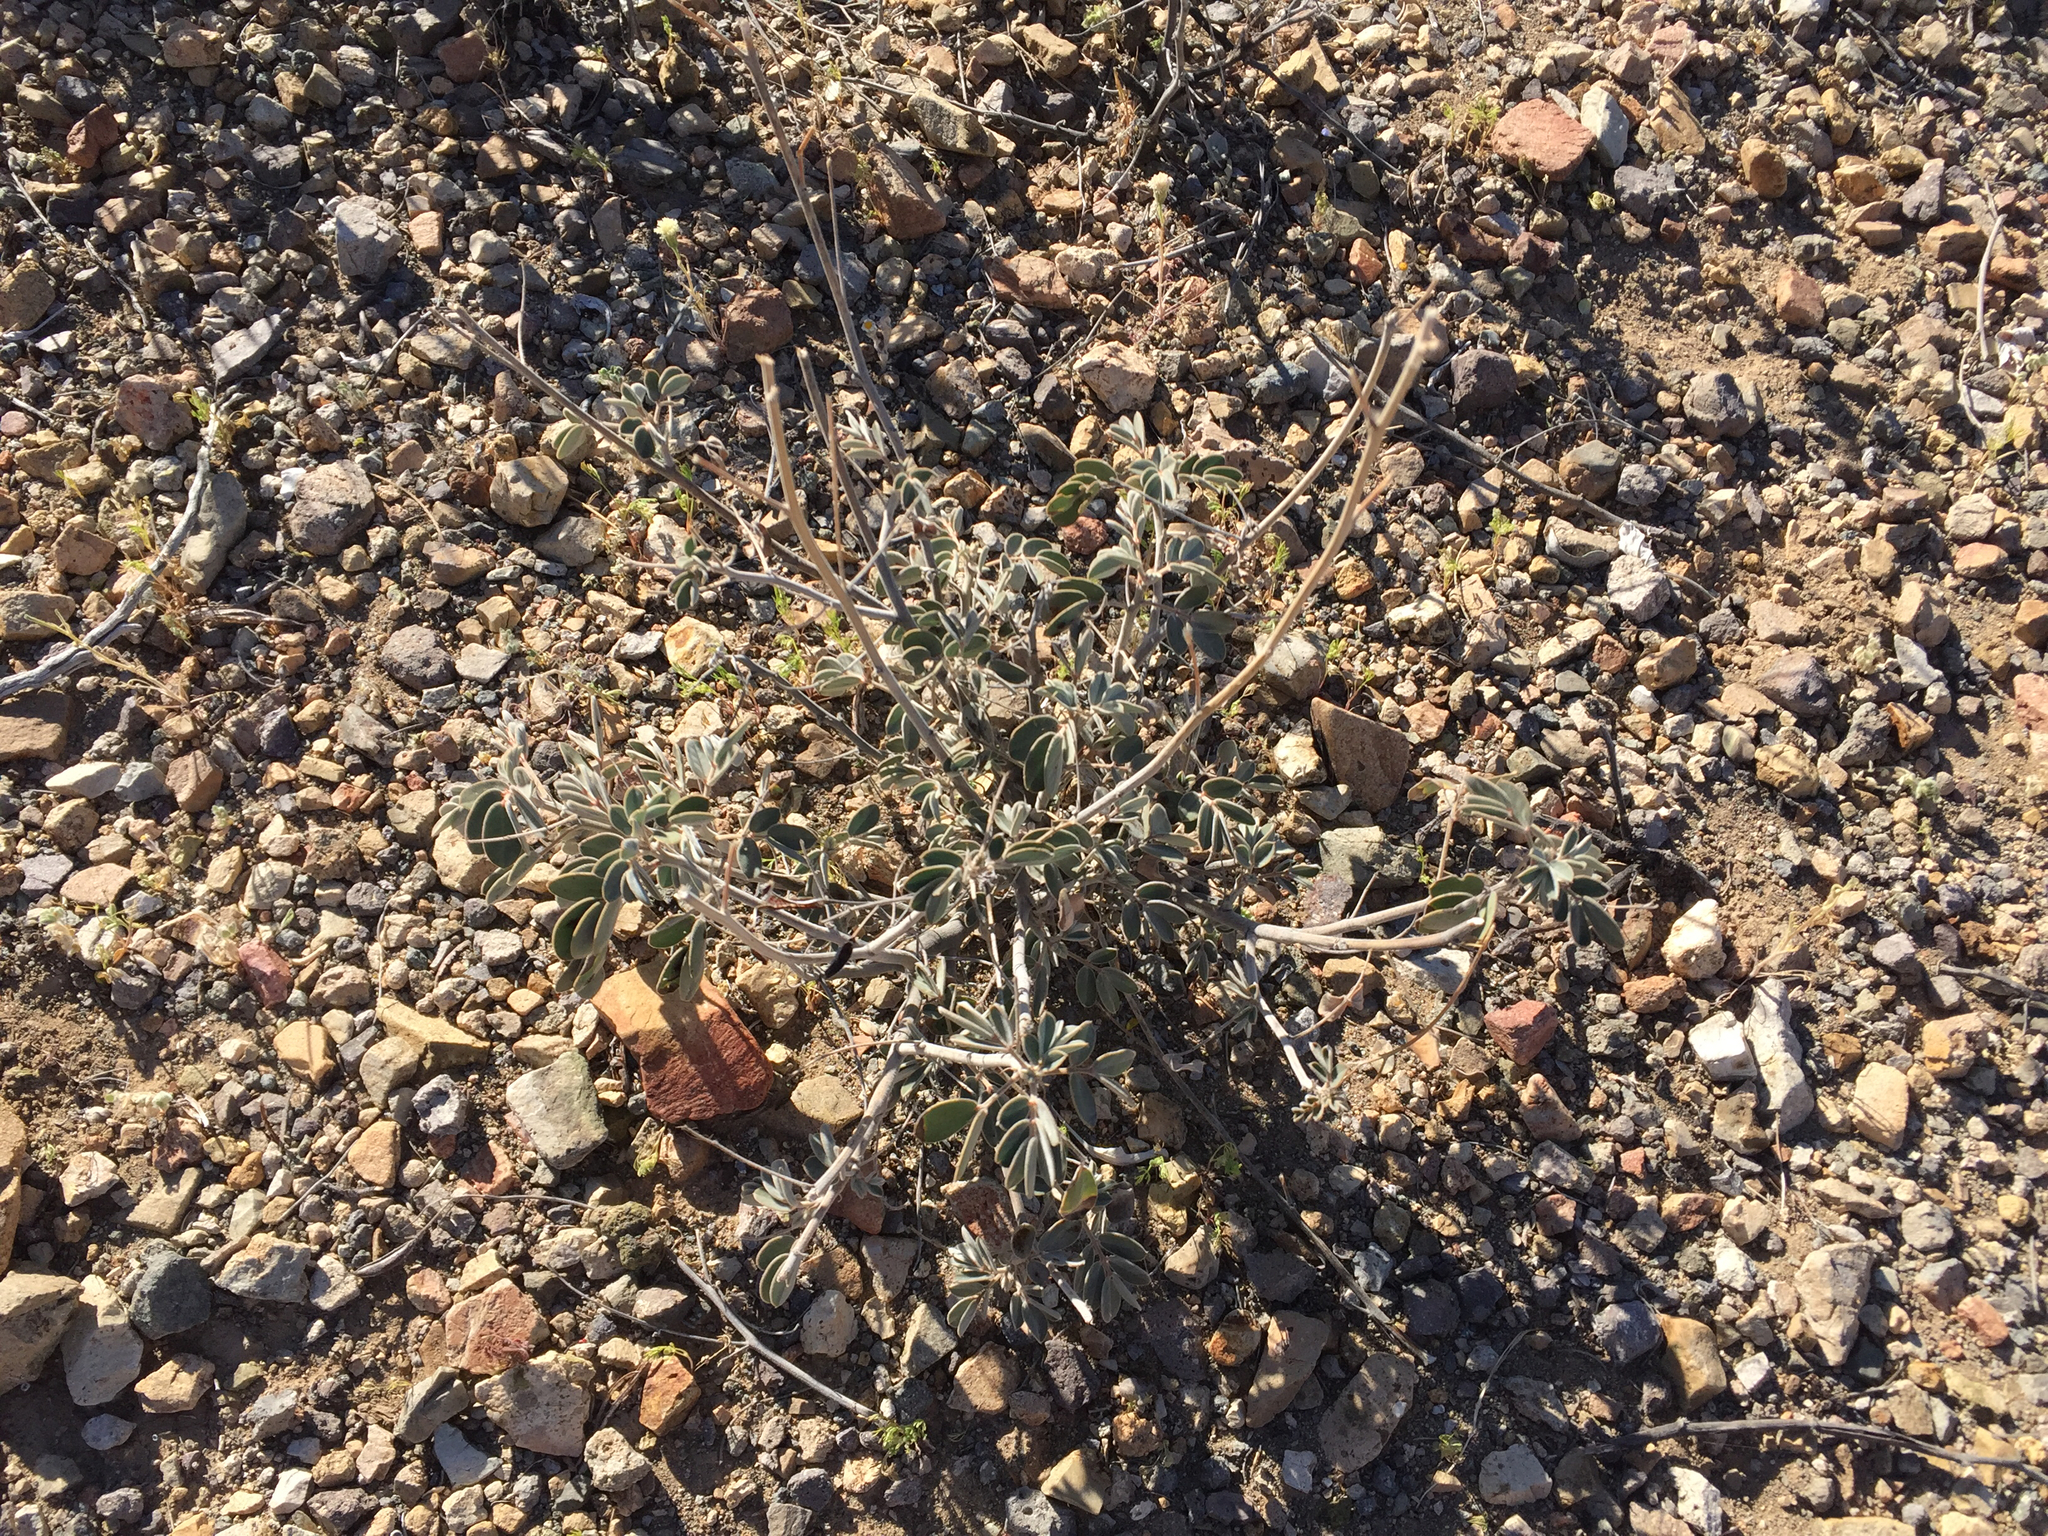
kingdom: Plantae
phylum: Tracheophyta
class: Magnoliopsida
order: Fabales
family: Fabaceae
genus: Senna
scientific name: Senna covesii
